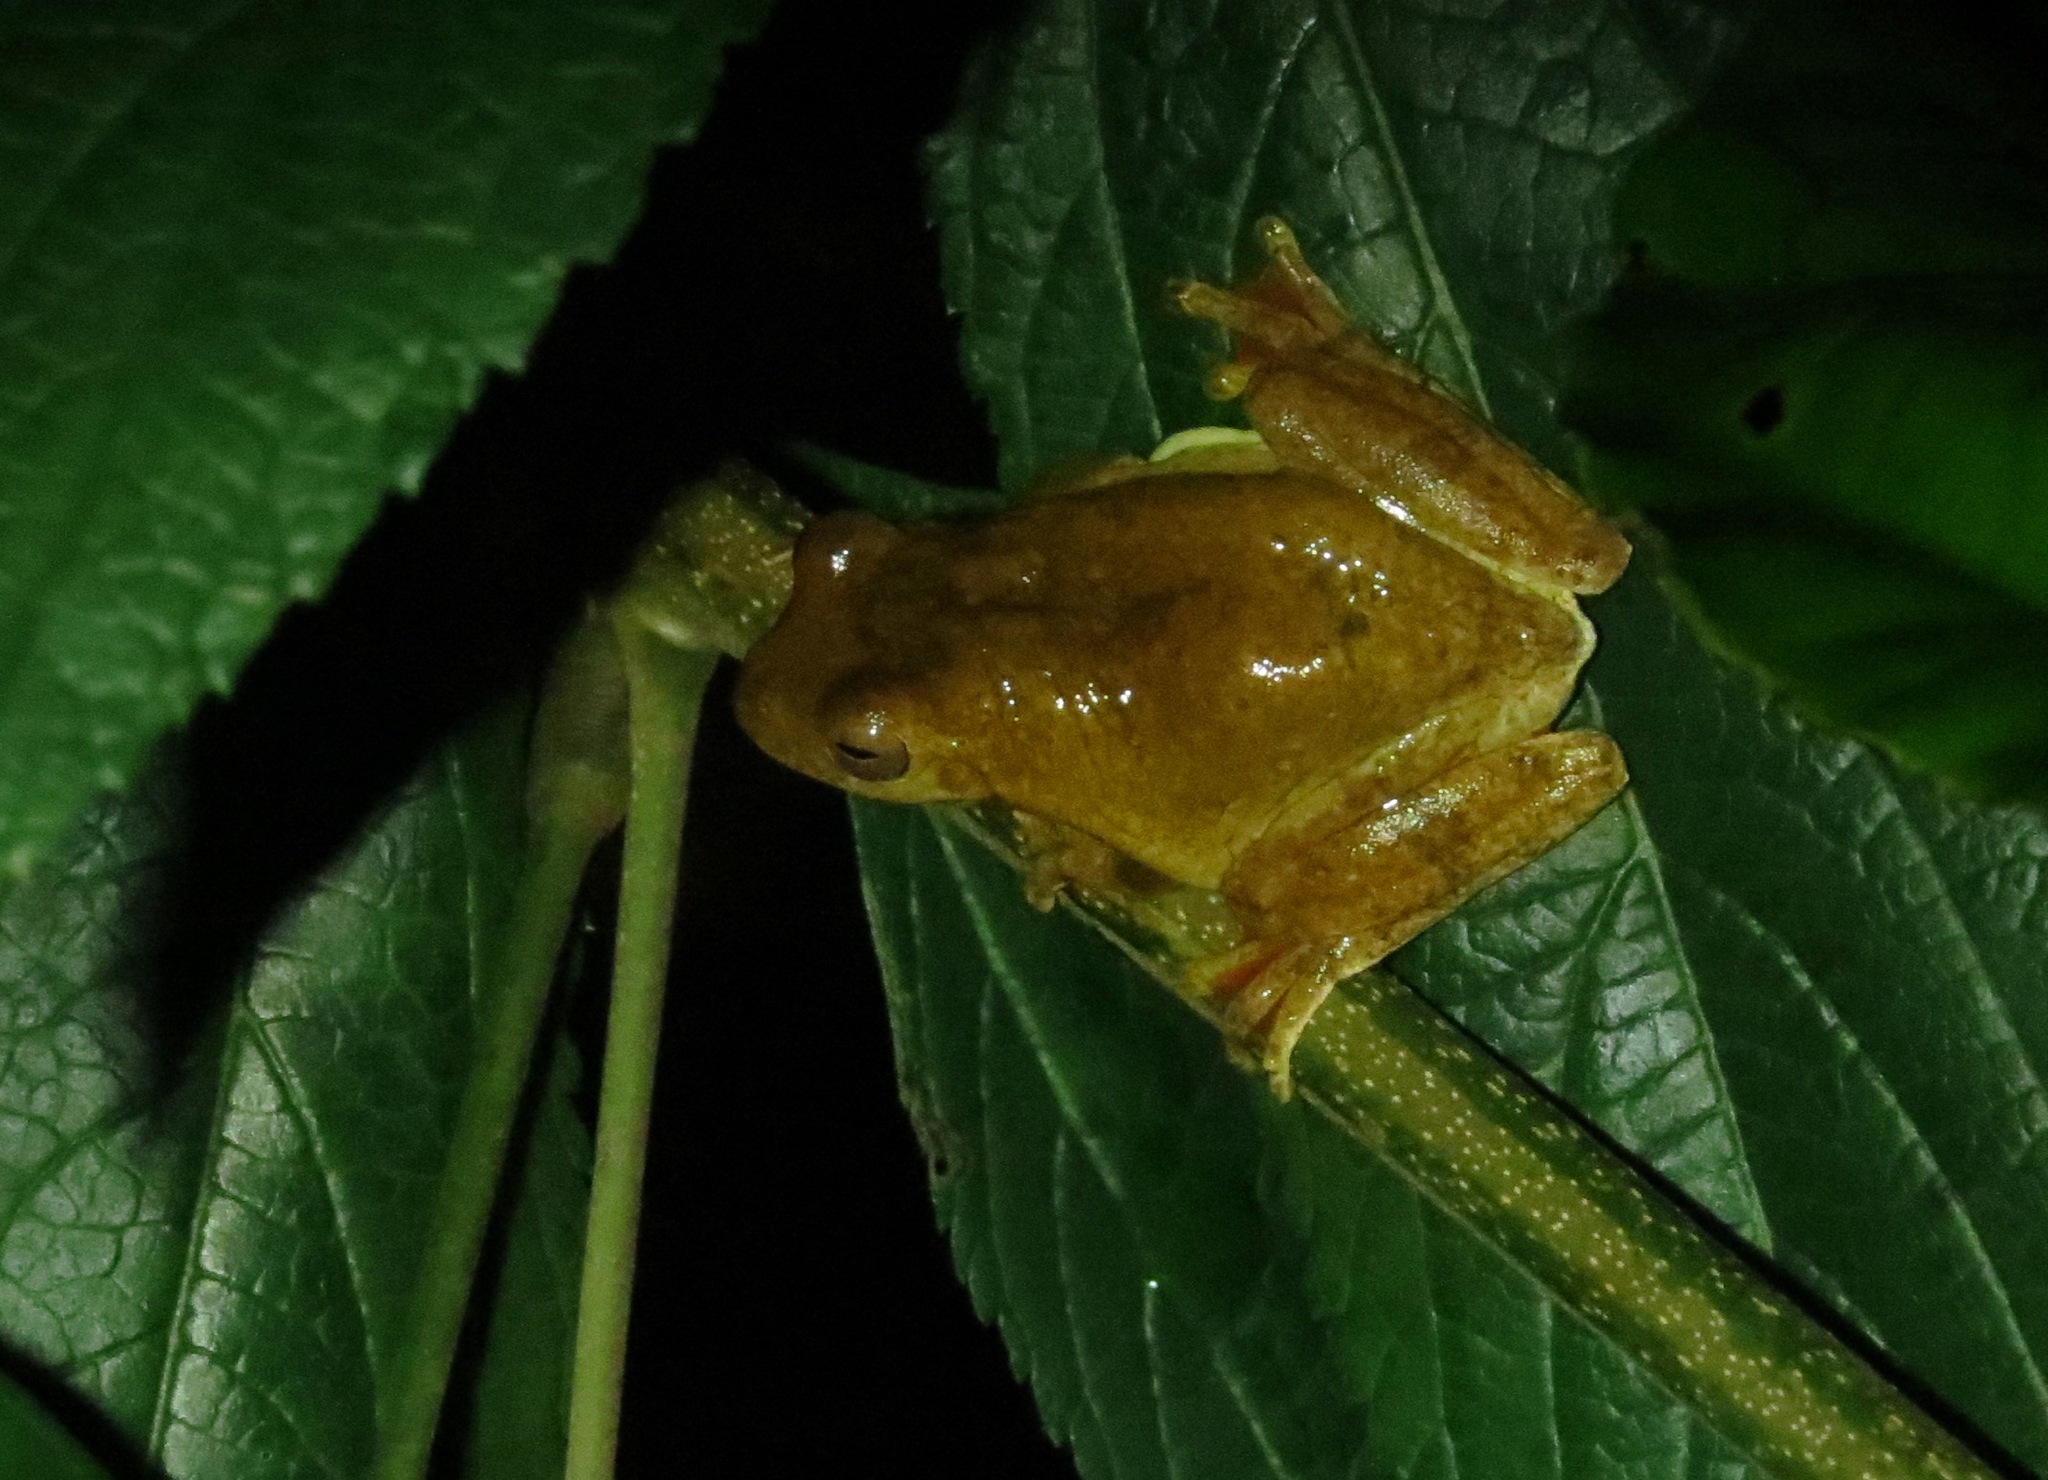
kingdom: Animalia
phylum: Chordata
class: Amphibia
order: Anura
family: Hylidae
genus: Tlalocohyla
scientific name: Tlalocohyla loquax
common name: Loquacious treefrog
